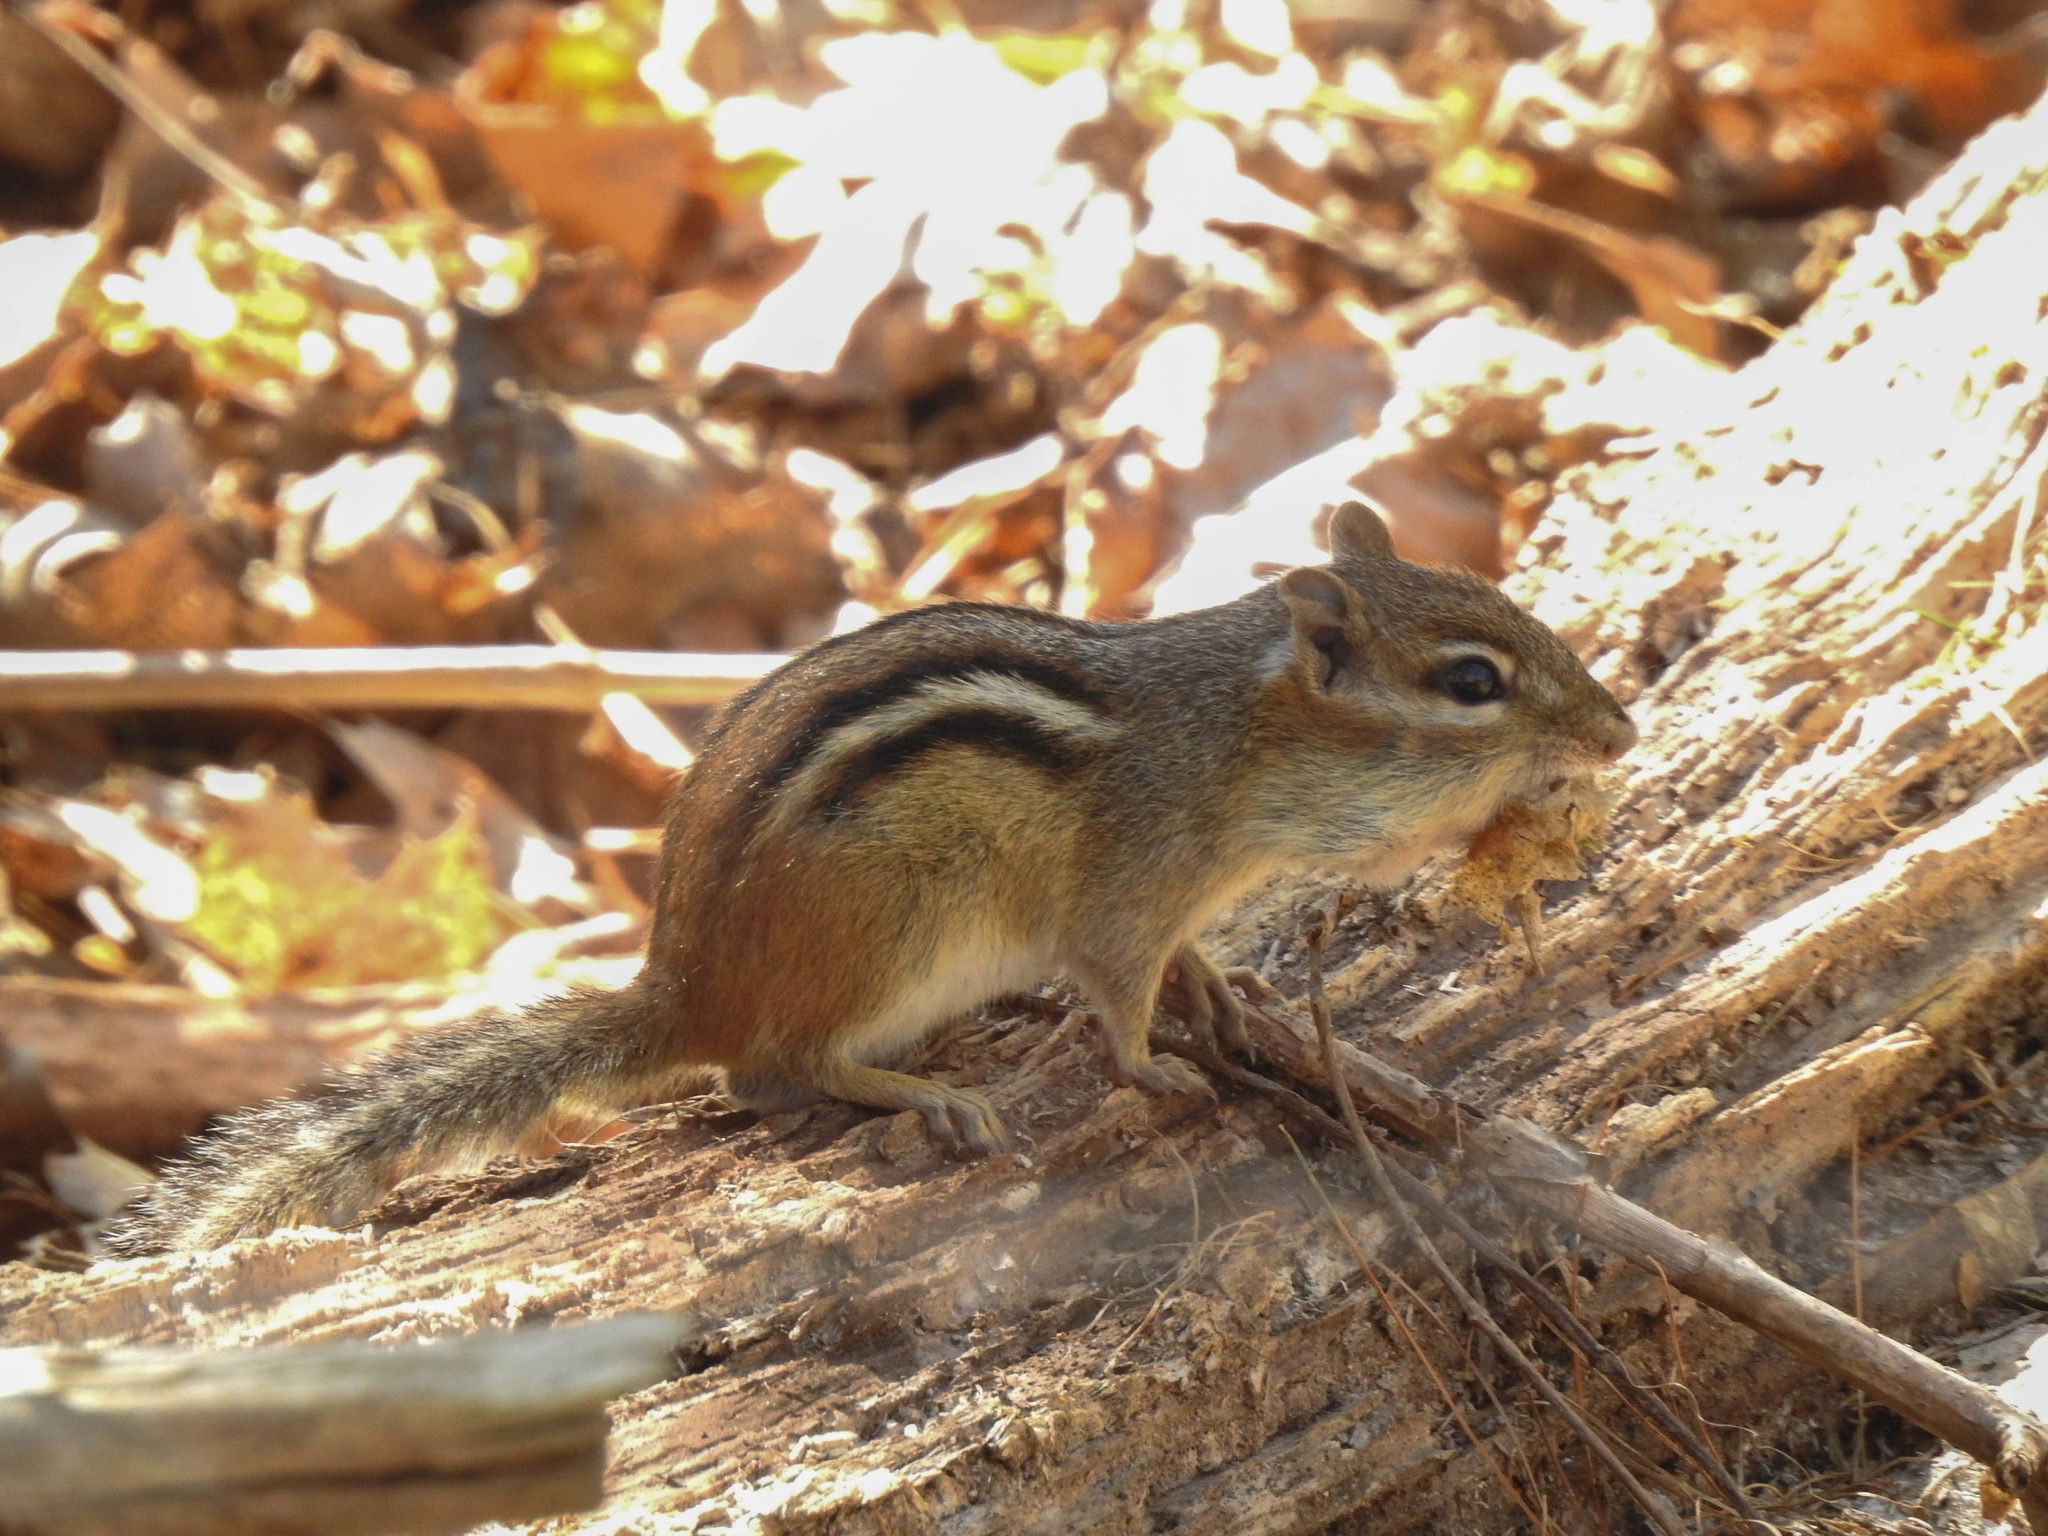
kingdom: Animalia
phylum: Chordata
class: Mammalia
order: Rodentia
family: Sciuridae
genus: Tamias
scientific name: Tamias striatus
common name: Eastern chipmunk
